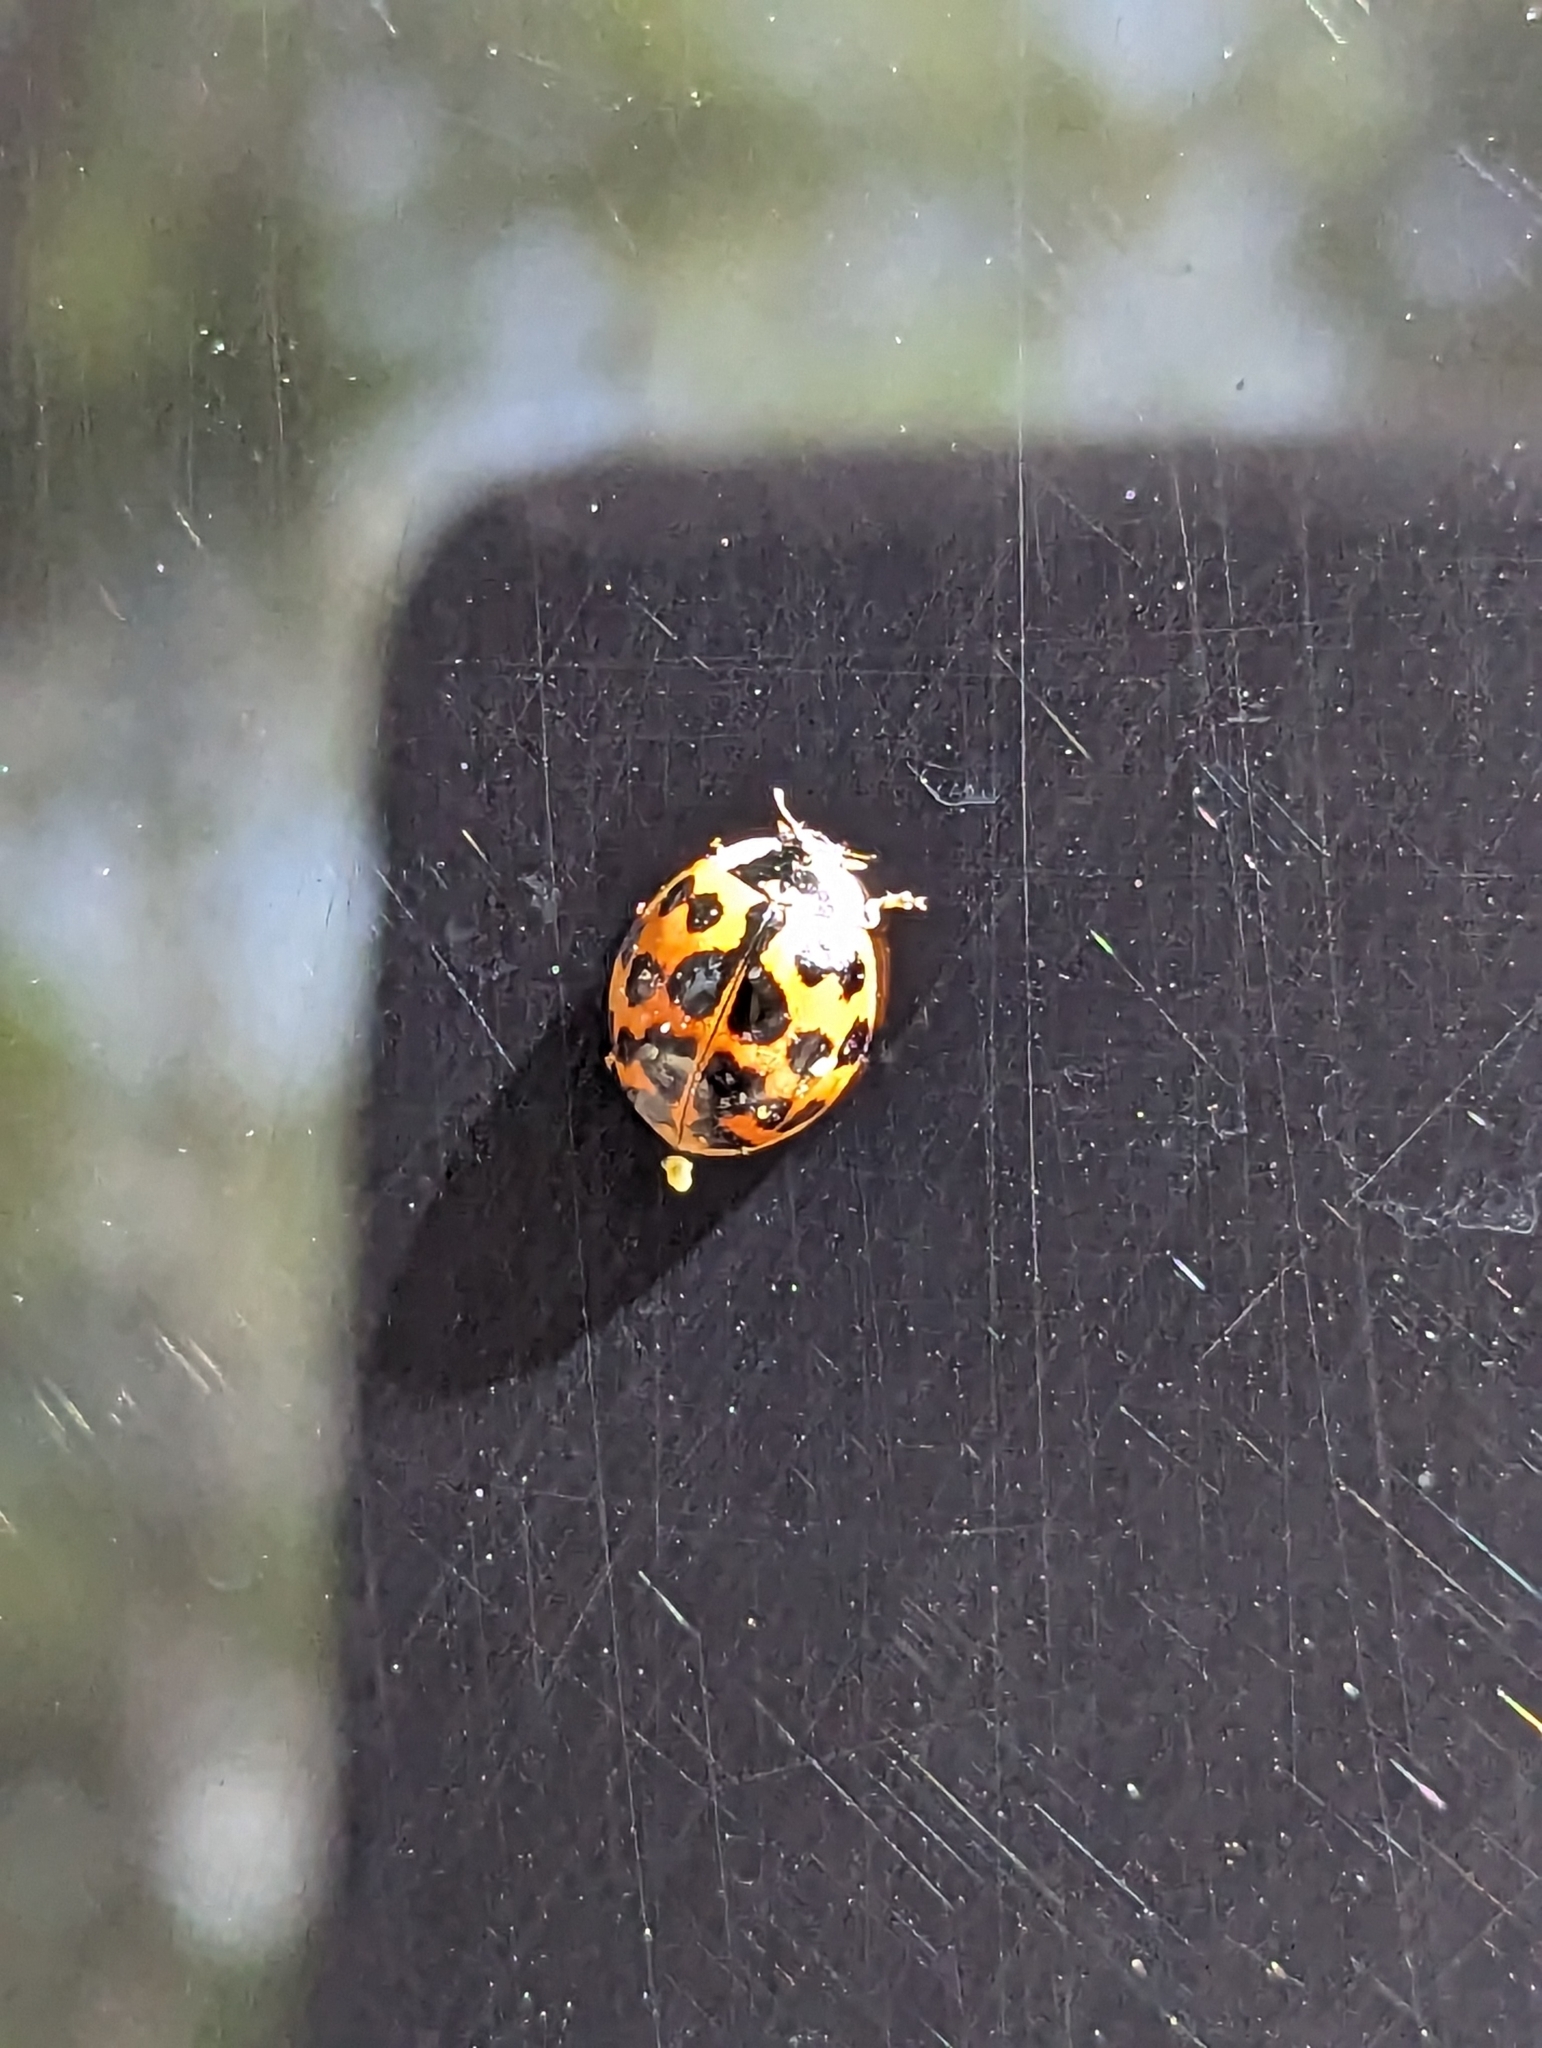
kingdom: Animalia
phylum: Arthropoda
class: Insecta
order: Coleoptera
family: Coccinellidae
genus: Harmonia
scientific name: Harmonia axyridis
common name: Harlequin ladybird
